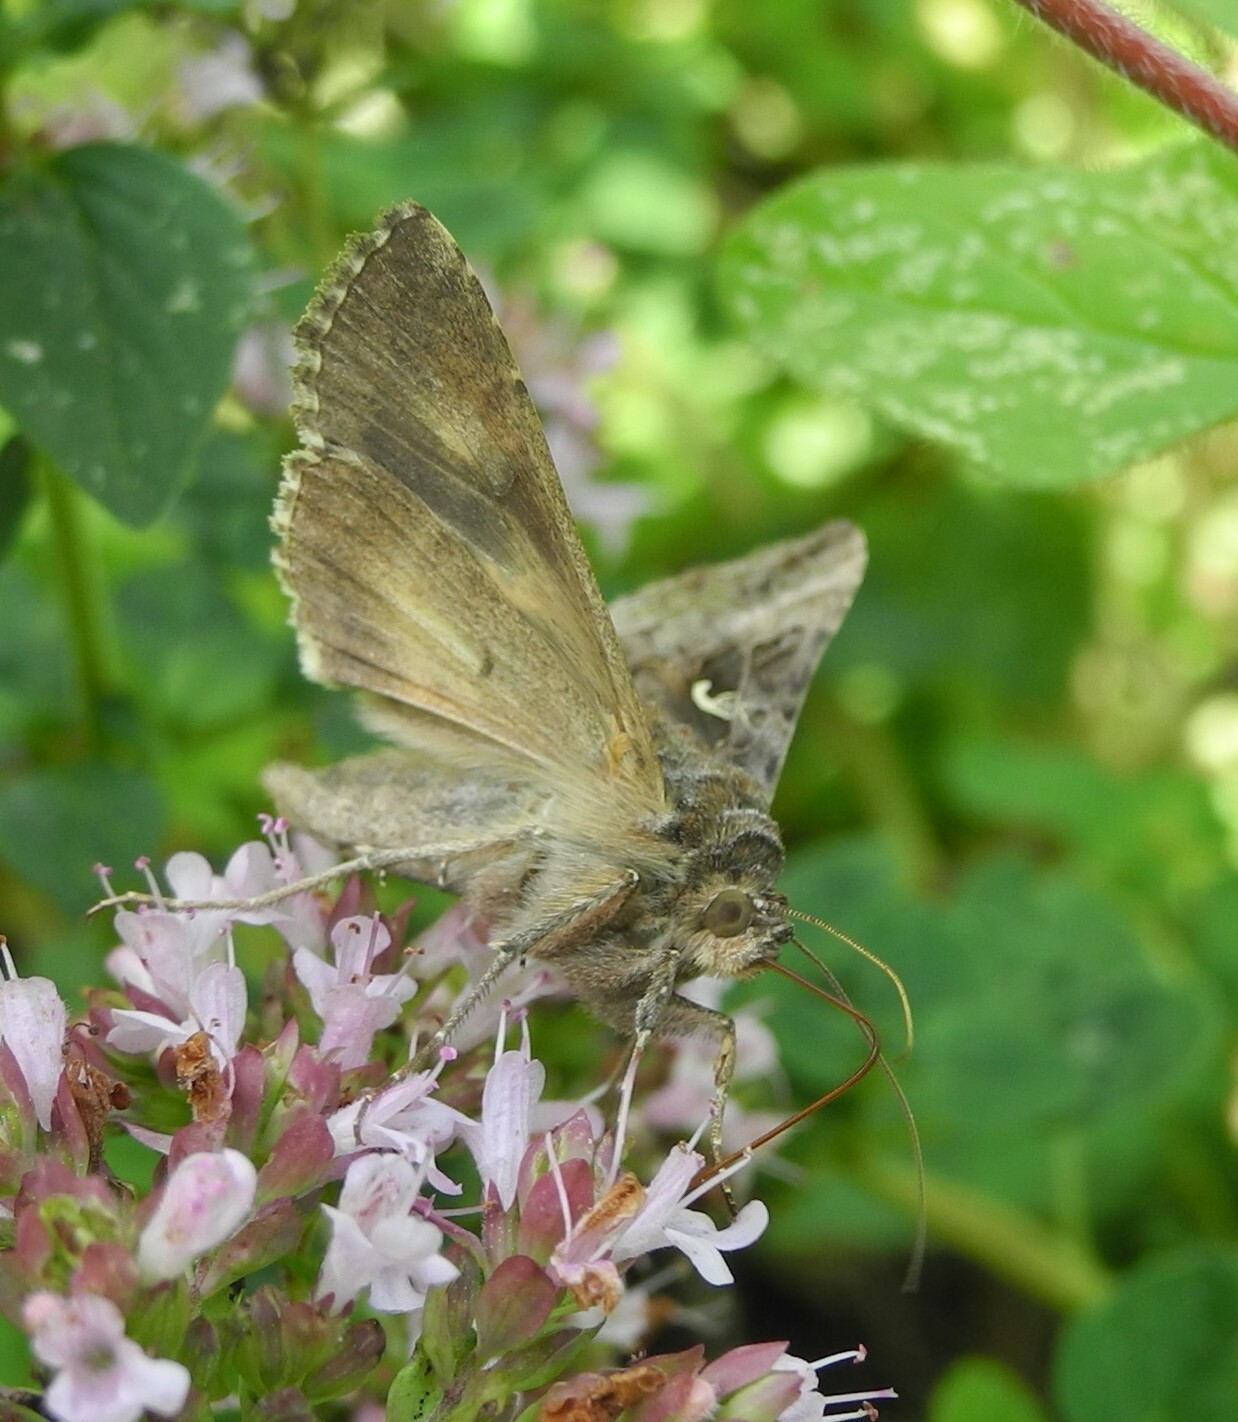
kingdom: Animalia
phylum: Arthropoda
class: Insecta
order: Lepidoptera
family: Noctuidae
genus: Autographa
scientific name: Autographa gamma
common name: Silver y
